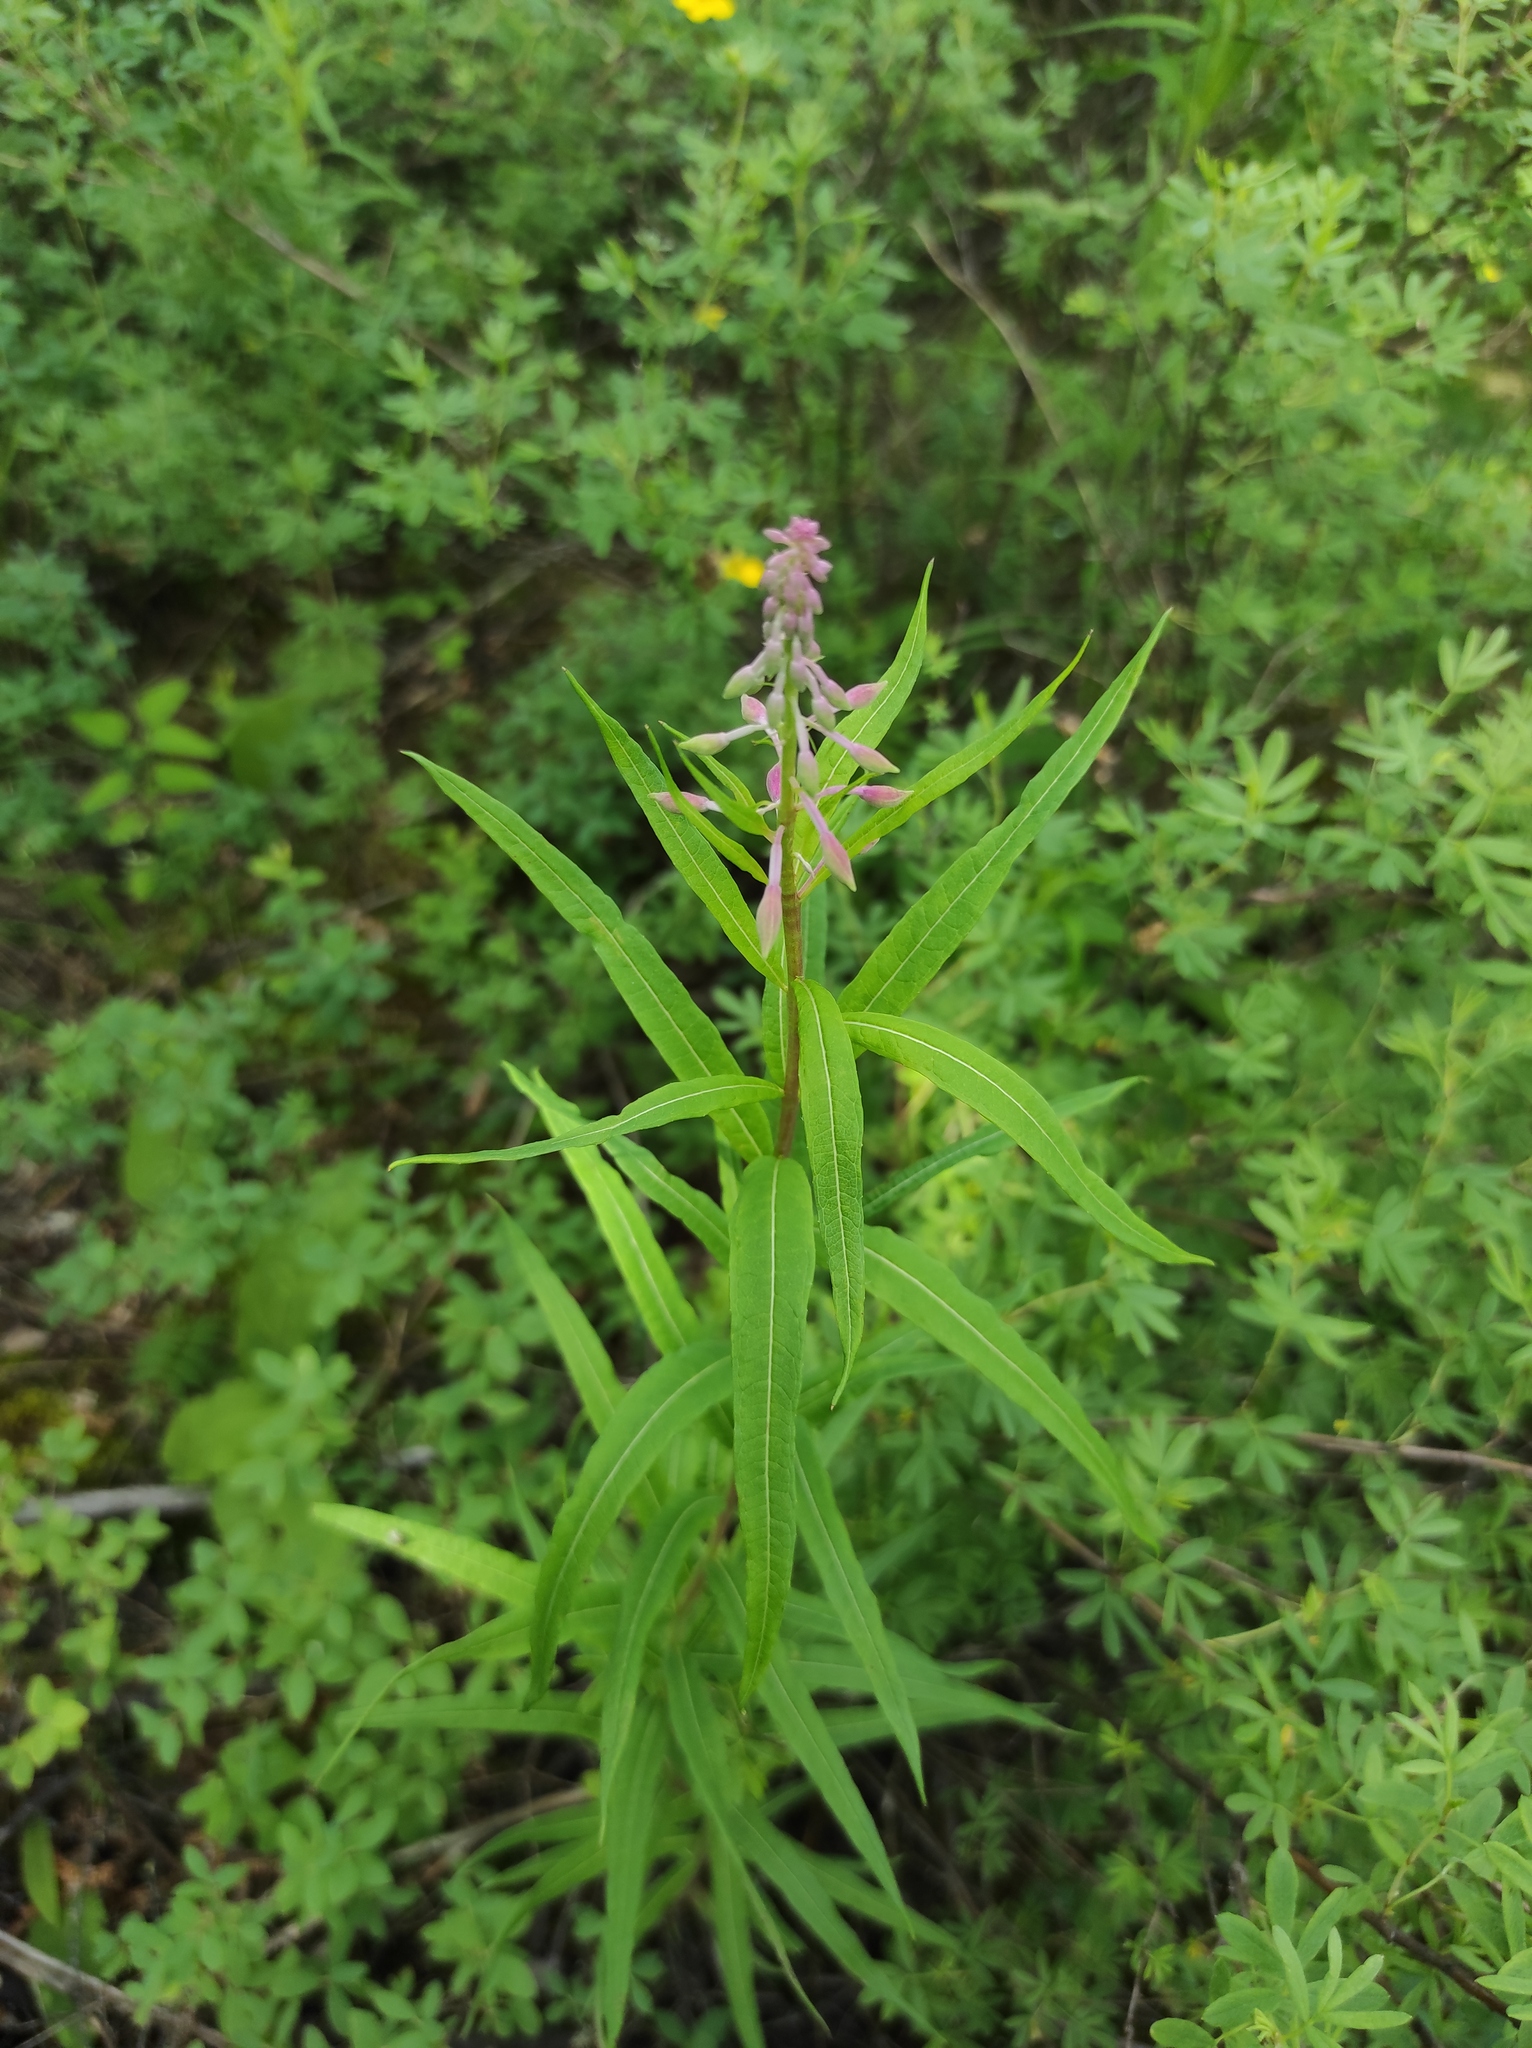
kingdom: Plantae
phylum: Tracheophyta
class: Magnoliopsida
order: Myrtales
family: Onagraceae
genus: Chamaenerion
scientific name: Chamaenerion angustifolium
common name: Fireweed
